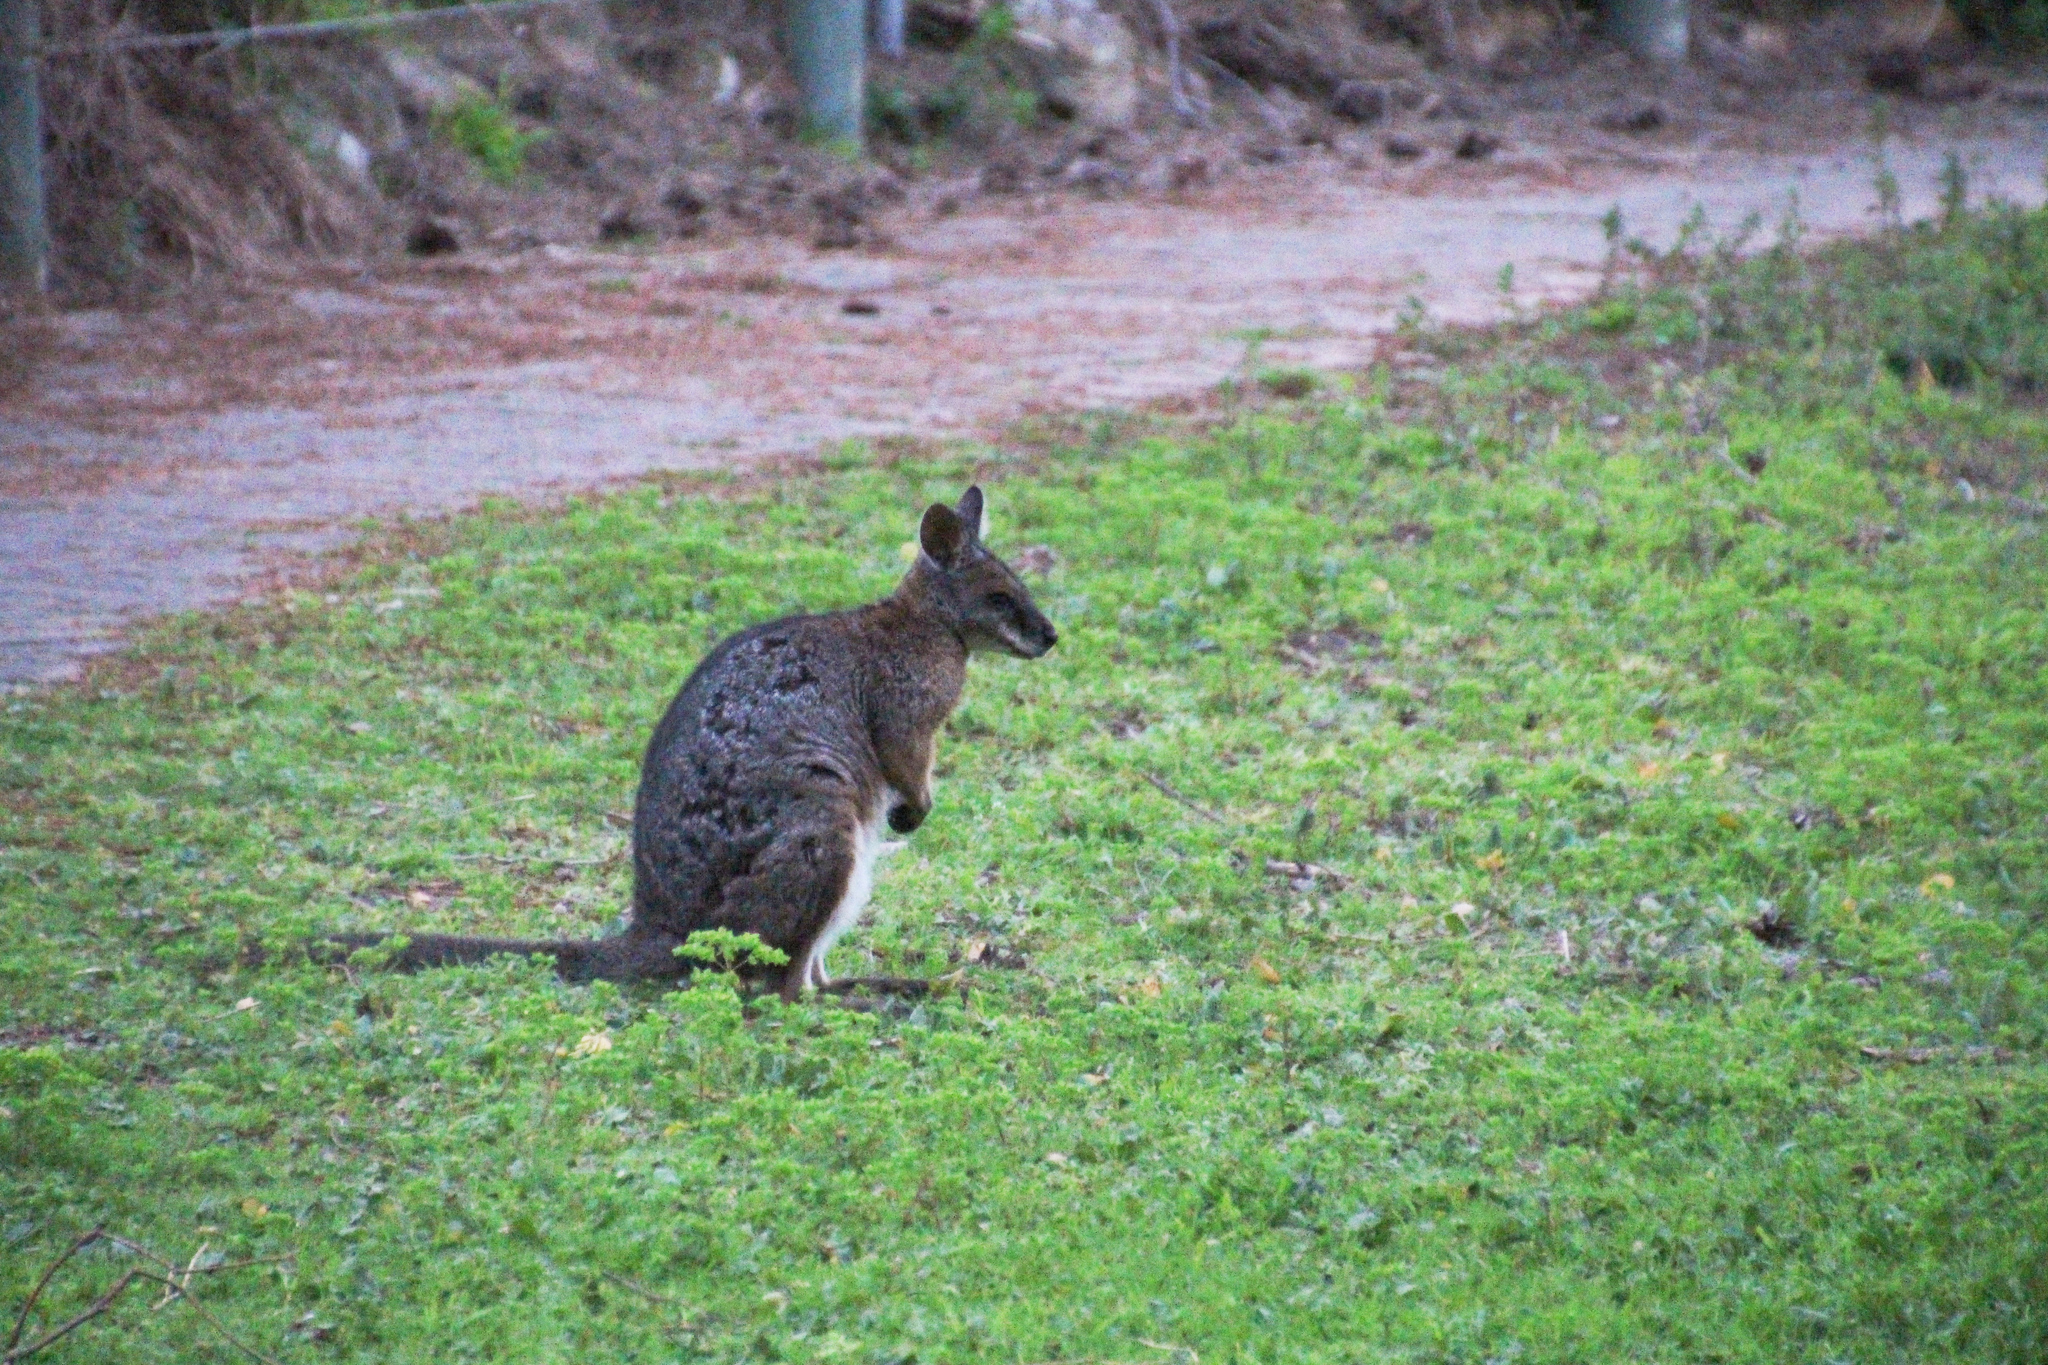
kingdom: Animalia
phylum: Chordata
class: Mammalia
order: Diprotodontia
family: Macropodidae
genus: Macropus
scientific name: Macropus eugenii
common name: Tammar wallaby
